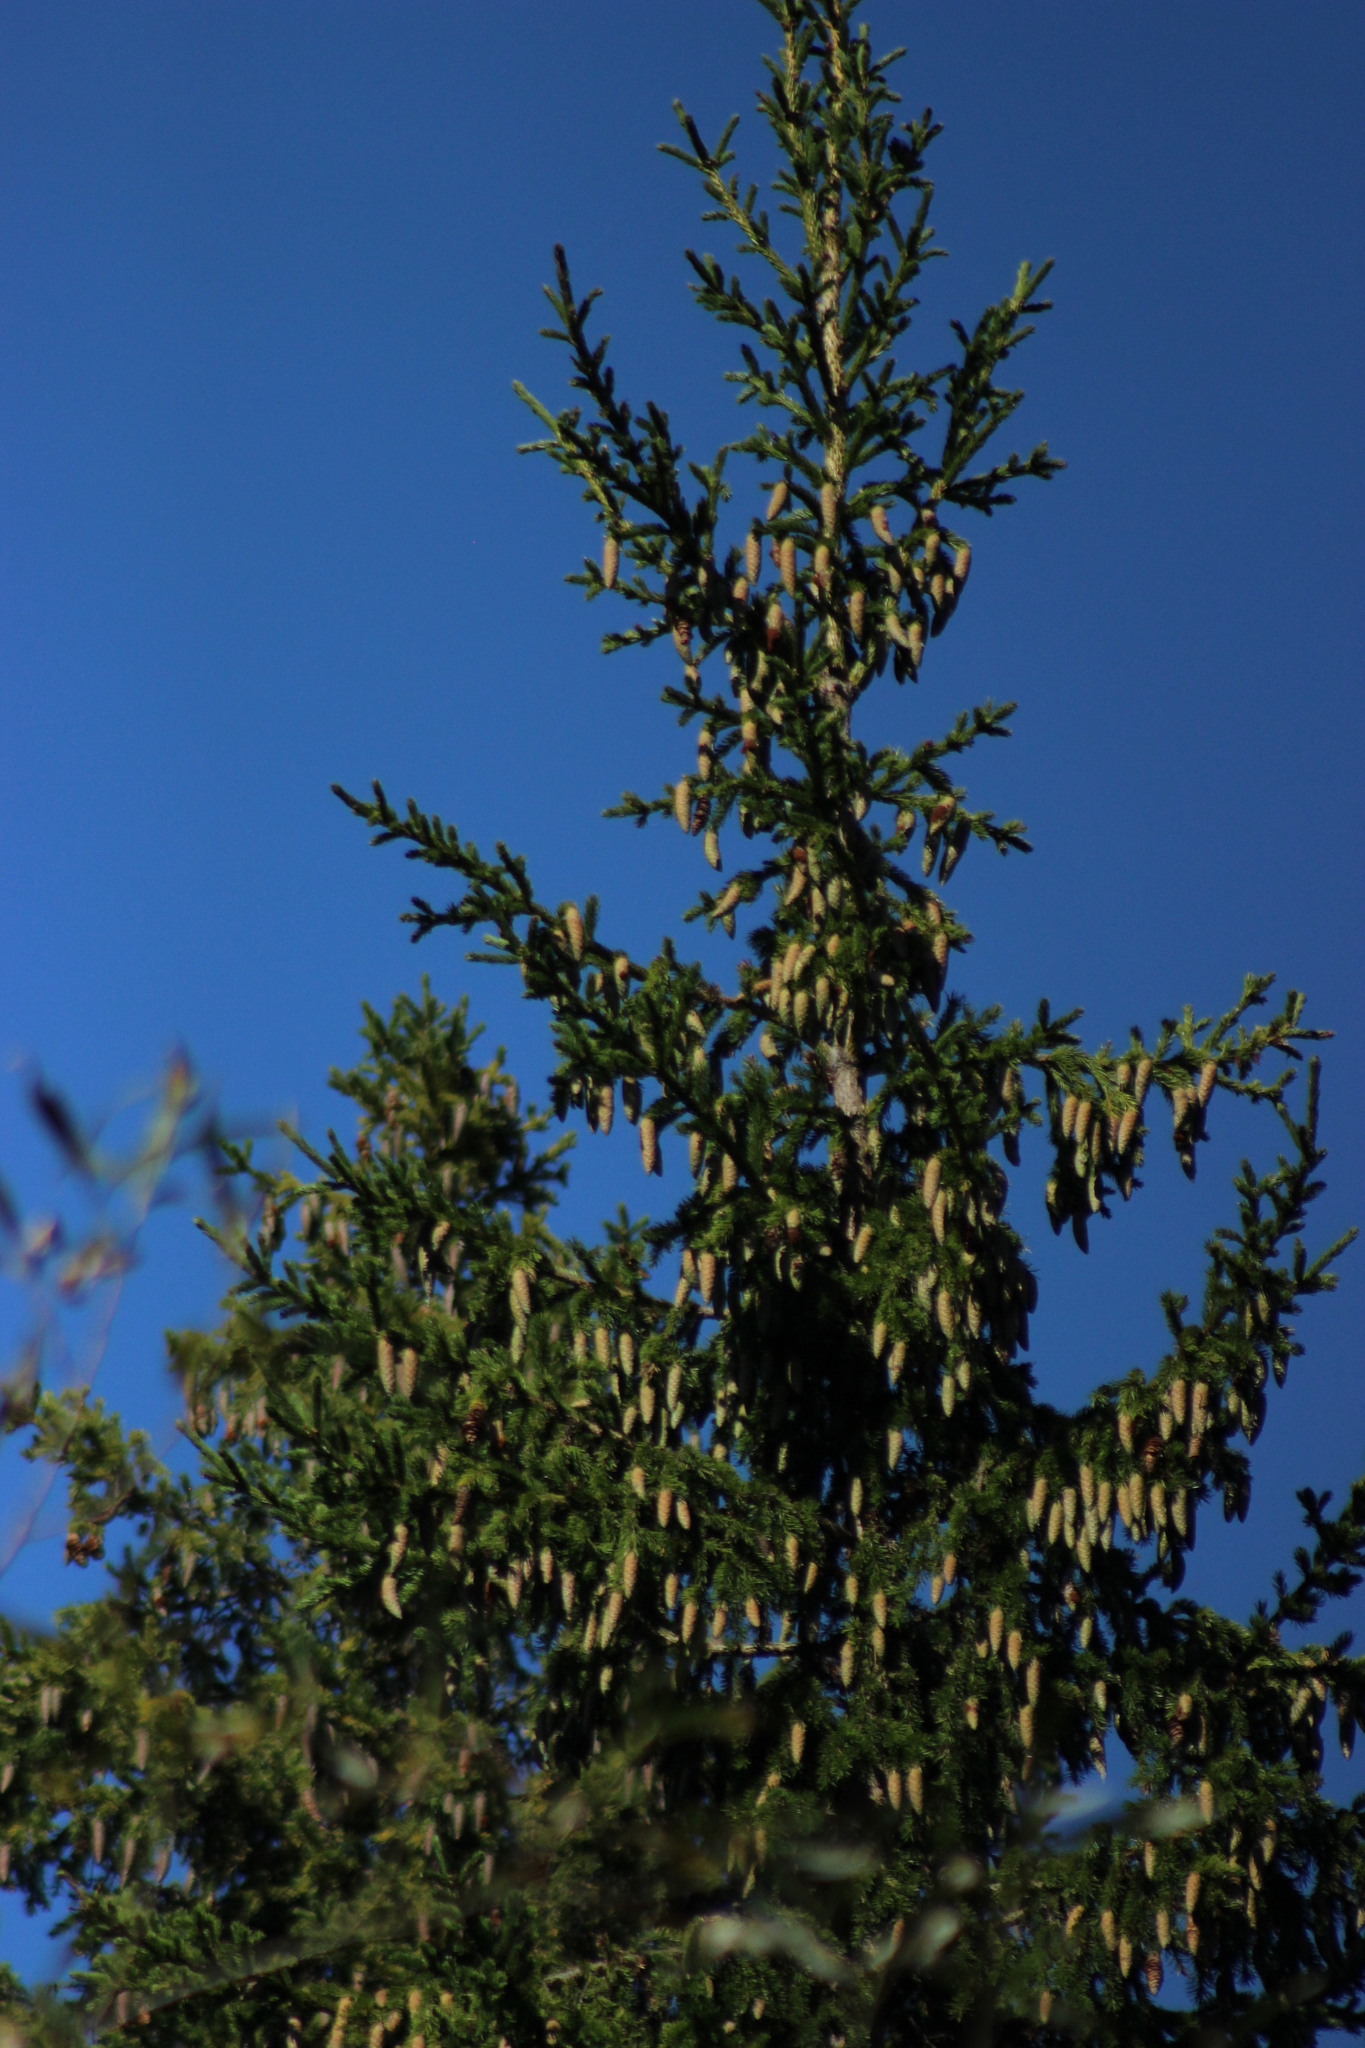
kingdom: Plantae
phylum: Tracheophyta
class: Pinopsida
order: Pinales
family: Pinaceae
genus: Picea
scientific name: Picea obovata
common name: Siberian spruce
